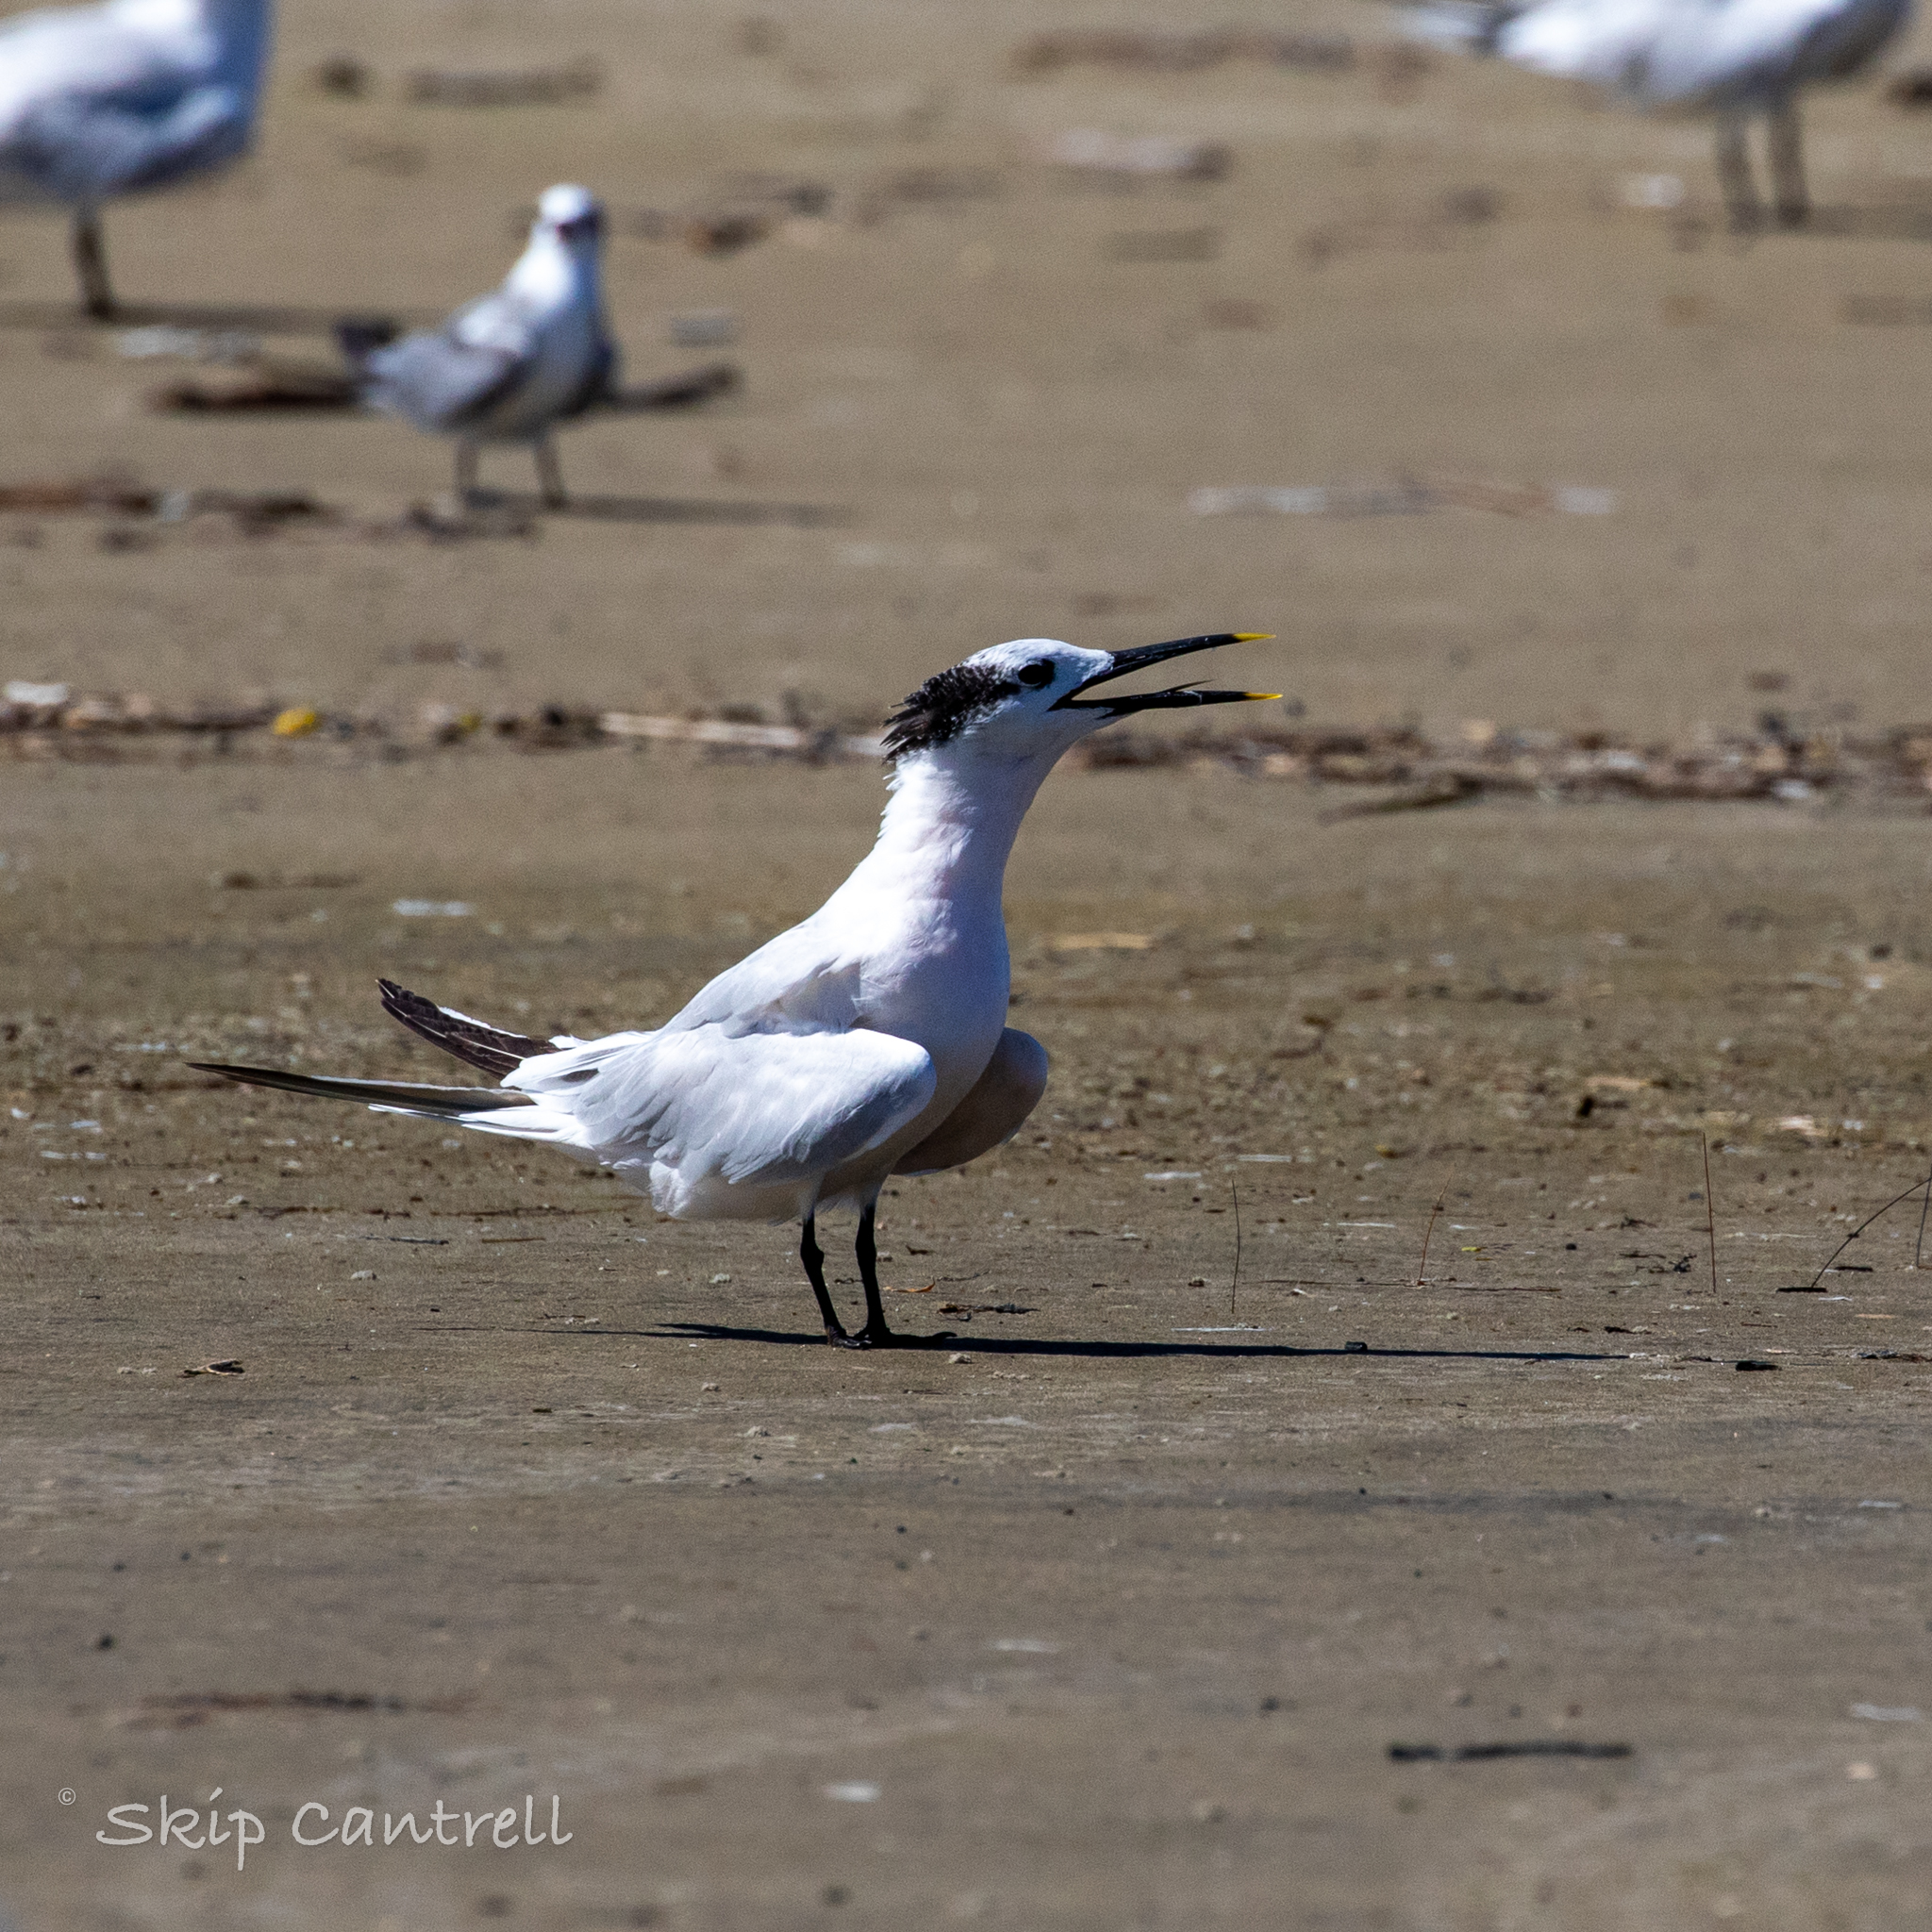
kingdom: Animalia
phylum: Chordata
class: Aves
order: Charadriiformes
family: Laridae
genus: Thalasseus
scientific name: Thalasseus sandvicensis
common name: Sandwich tern
